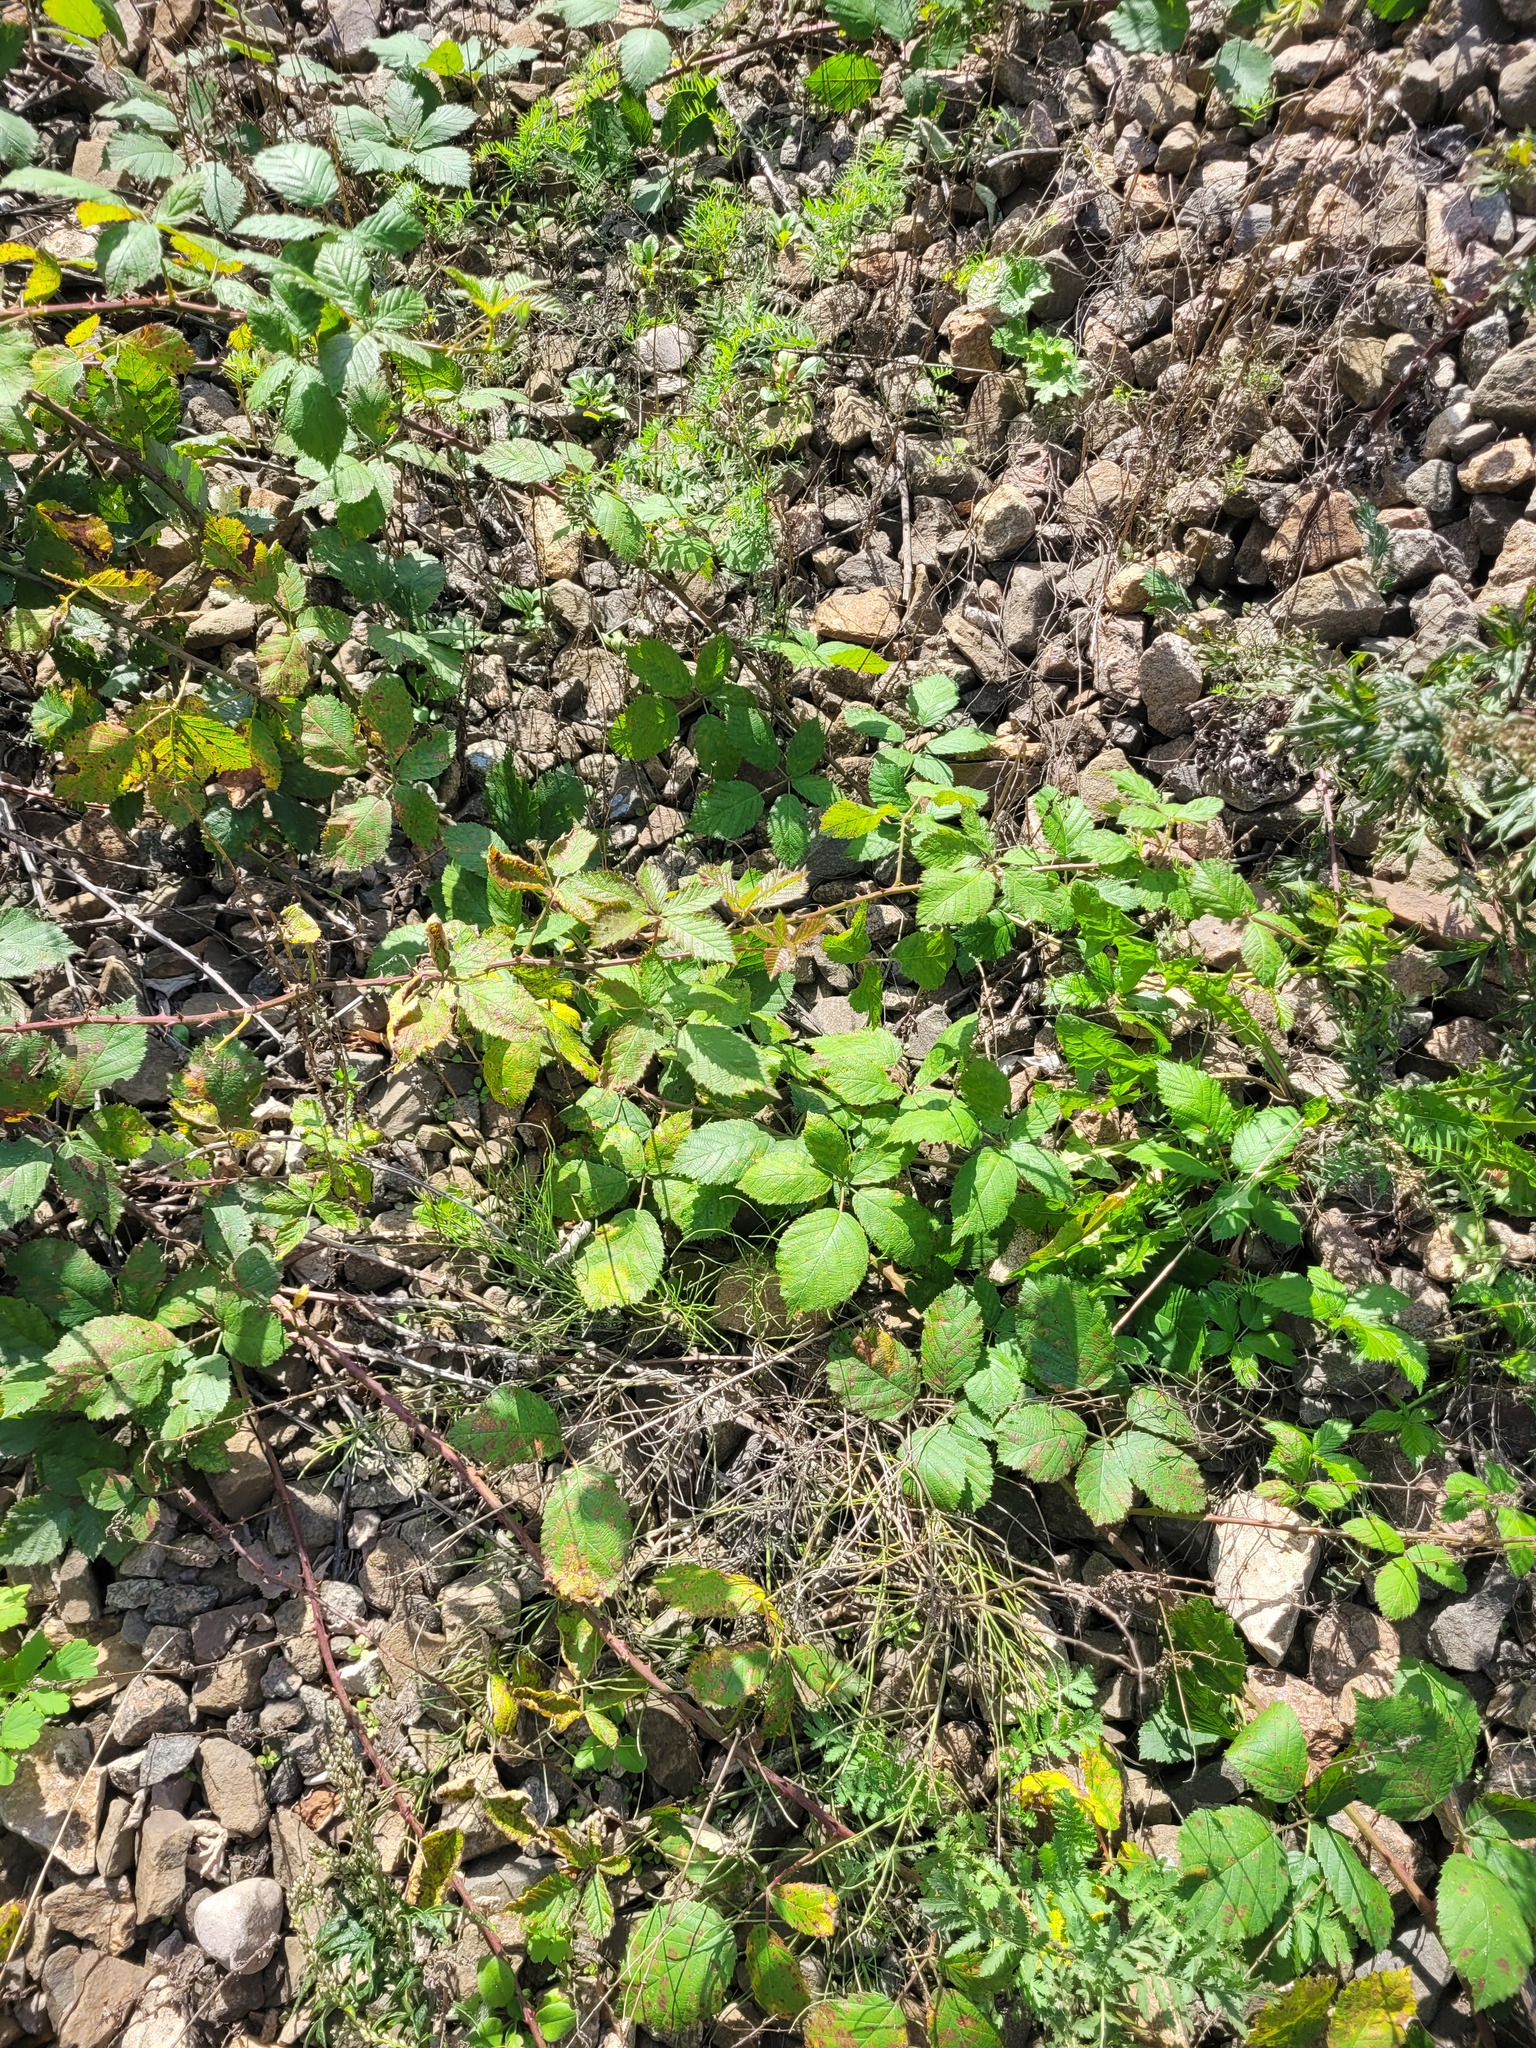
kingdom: Plantae
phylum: Tracheophyta
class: Magnoliopsida
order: Rosales
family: Rosaceae
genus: Rubus
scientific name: Rubus procerus
